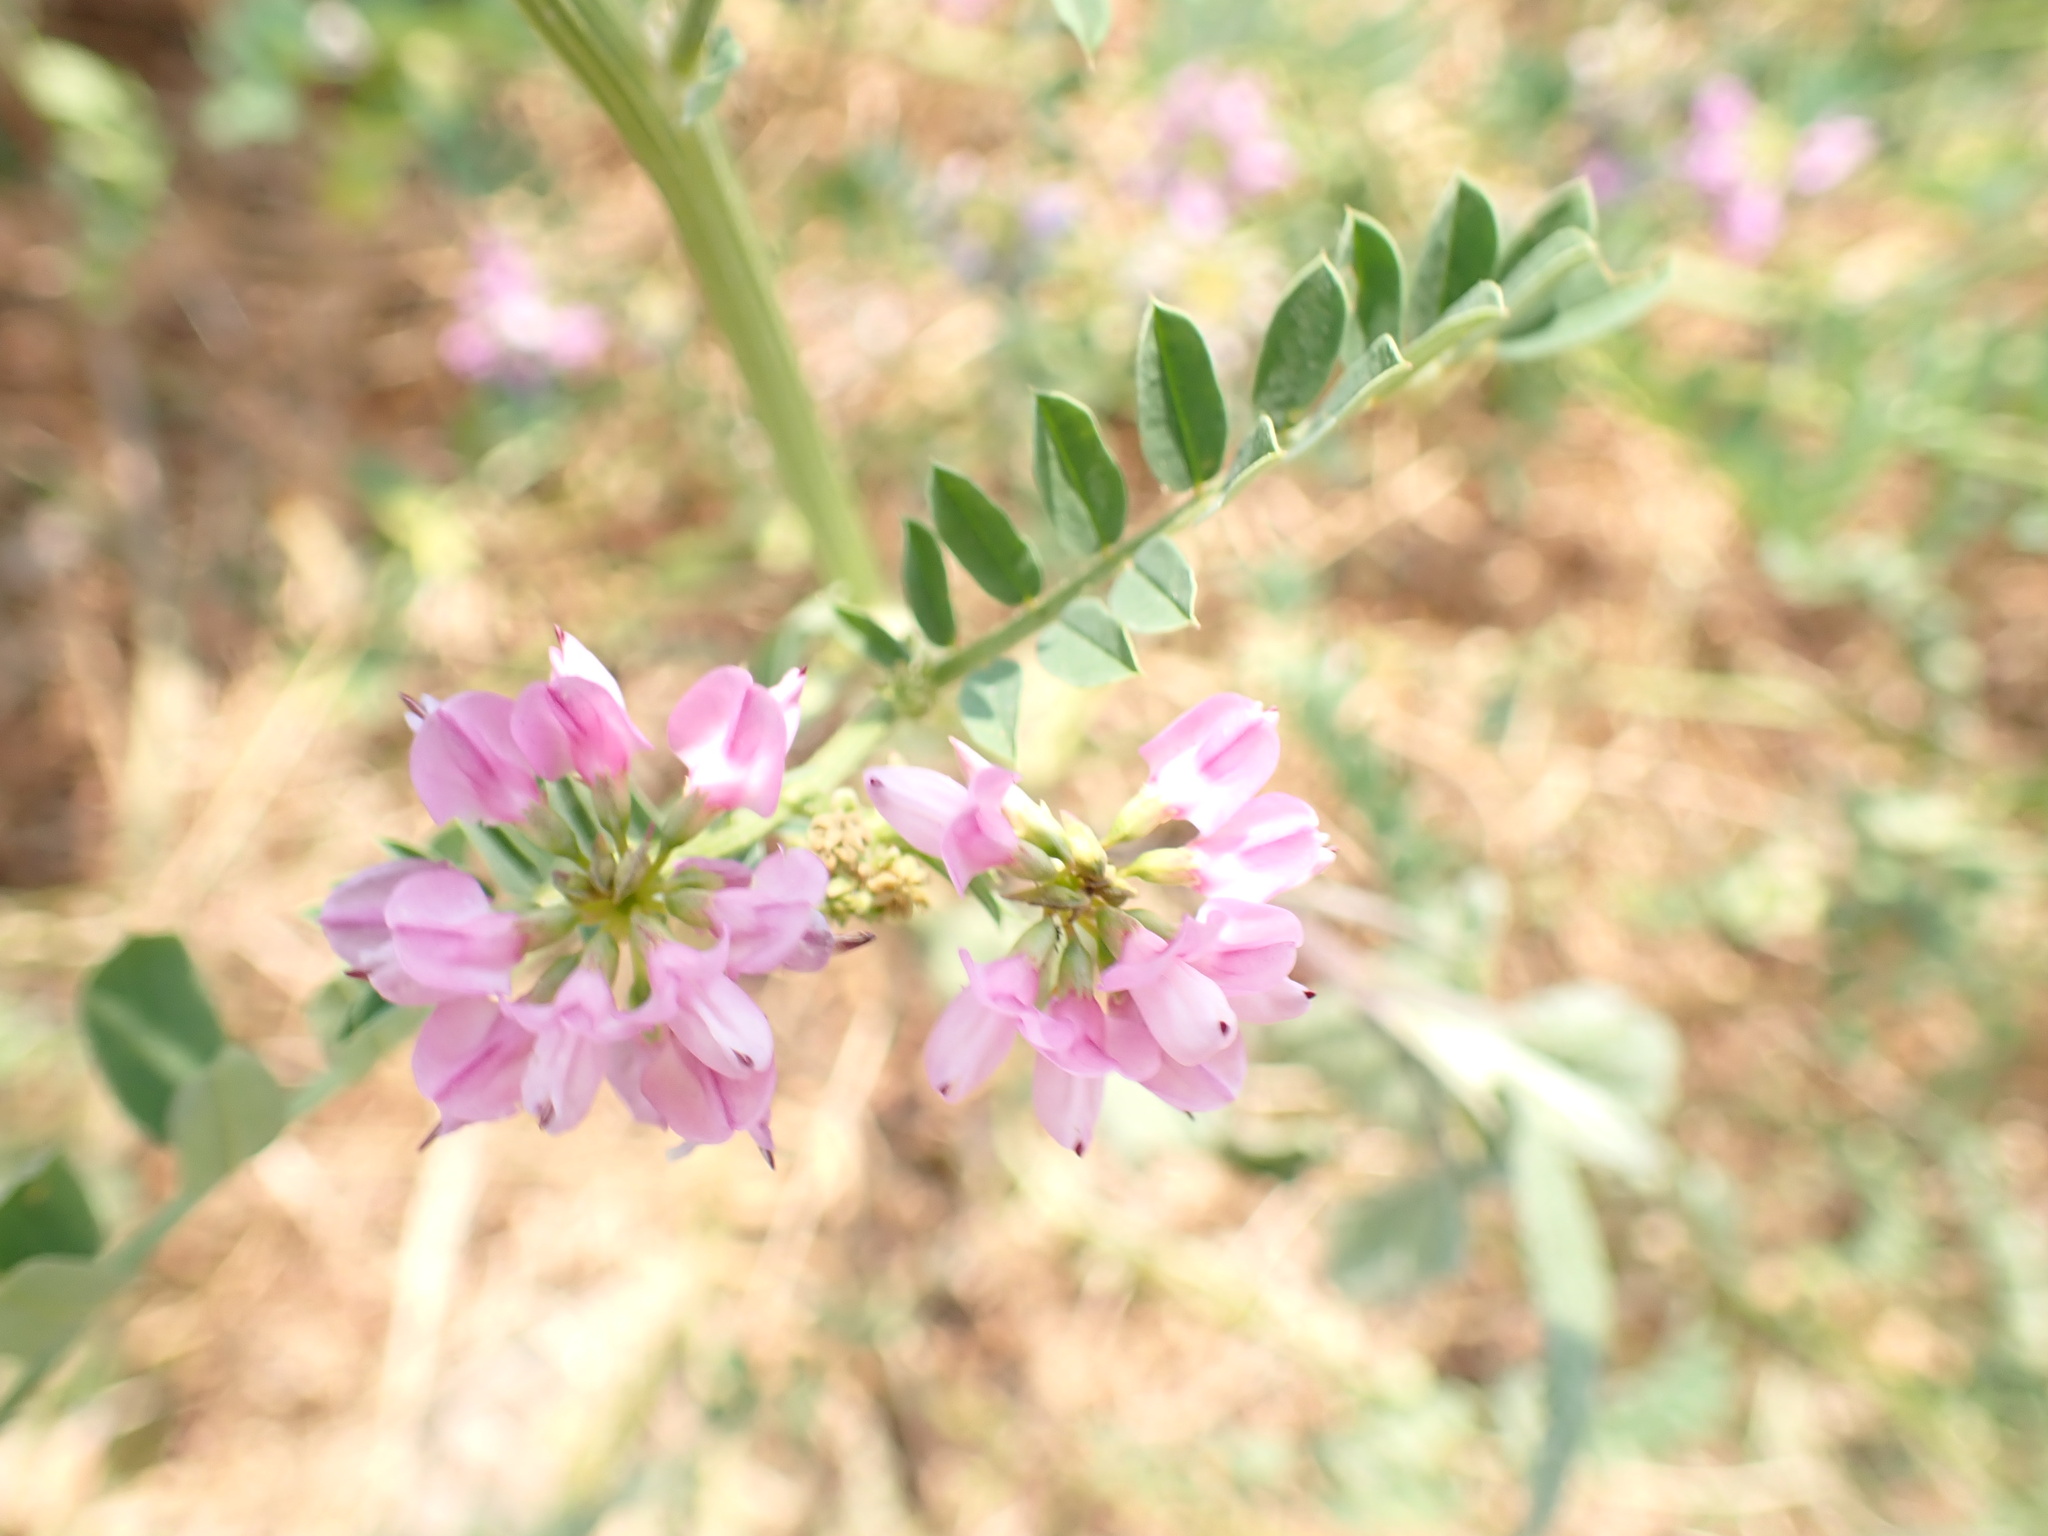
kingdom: Plantae
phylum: Tracheophyta
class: Magnoliopsida
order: Fabales
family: Fabaceae
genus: Coronilla
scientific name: Coronilla varia
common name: Crownvetch
